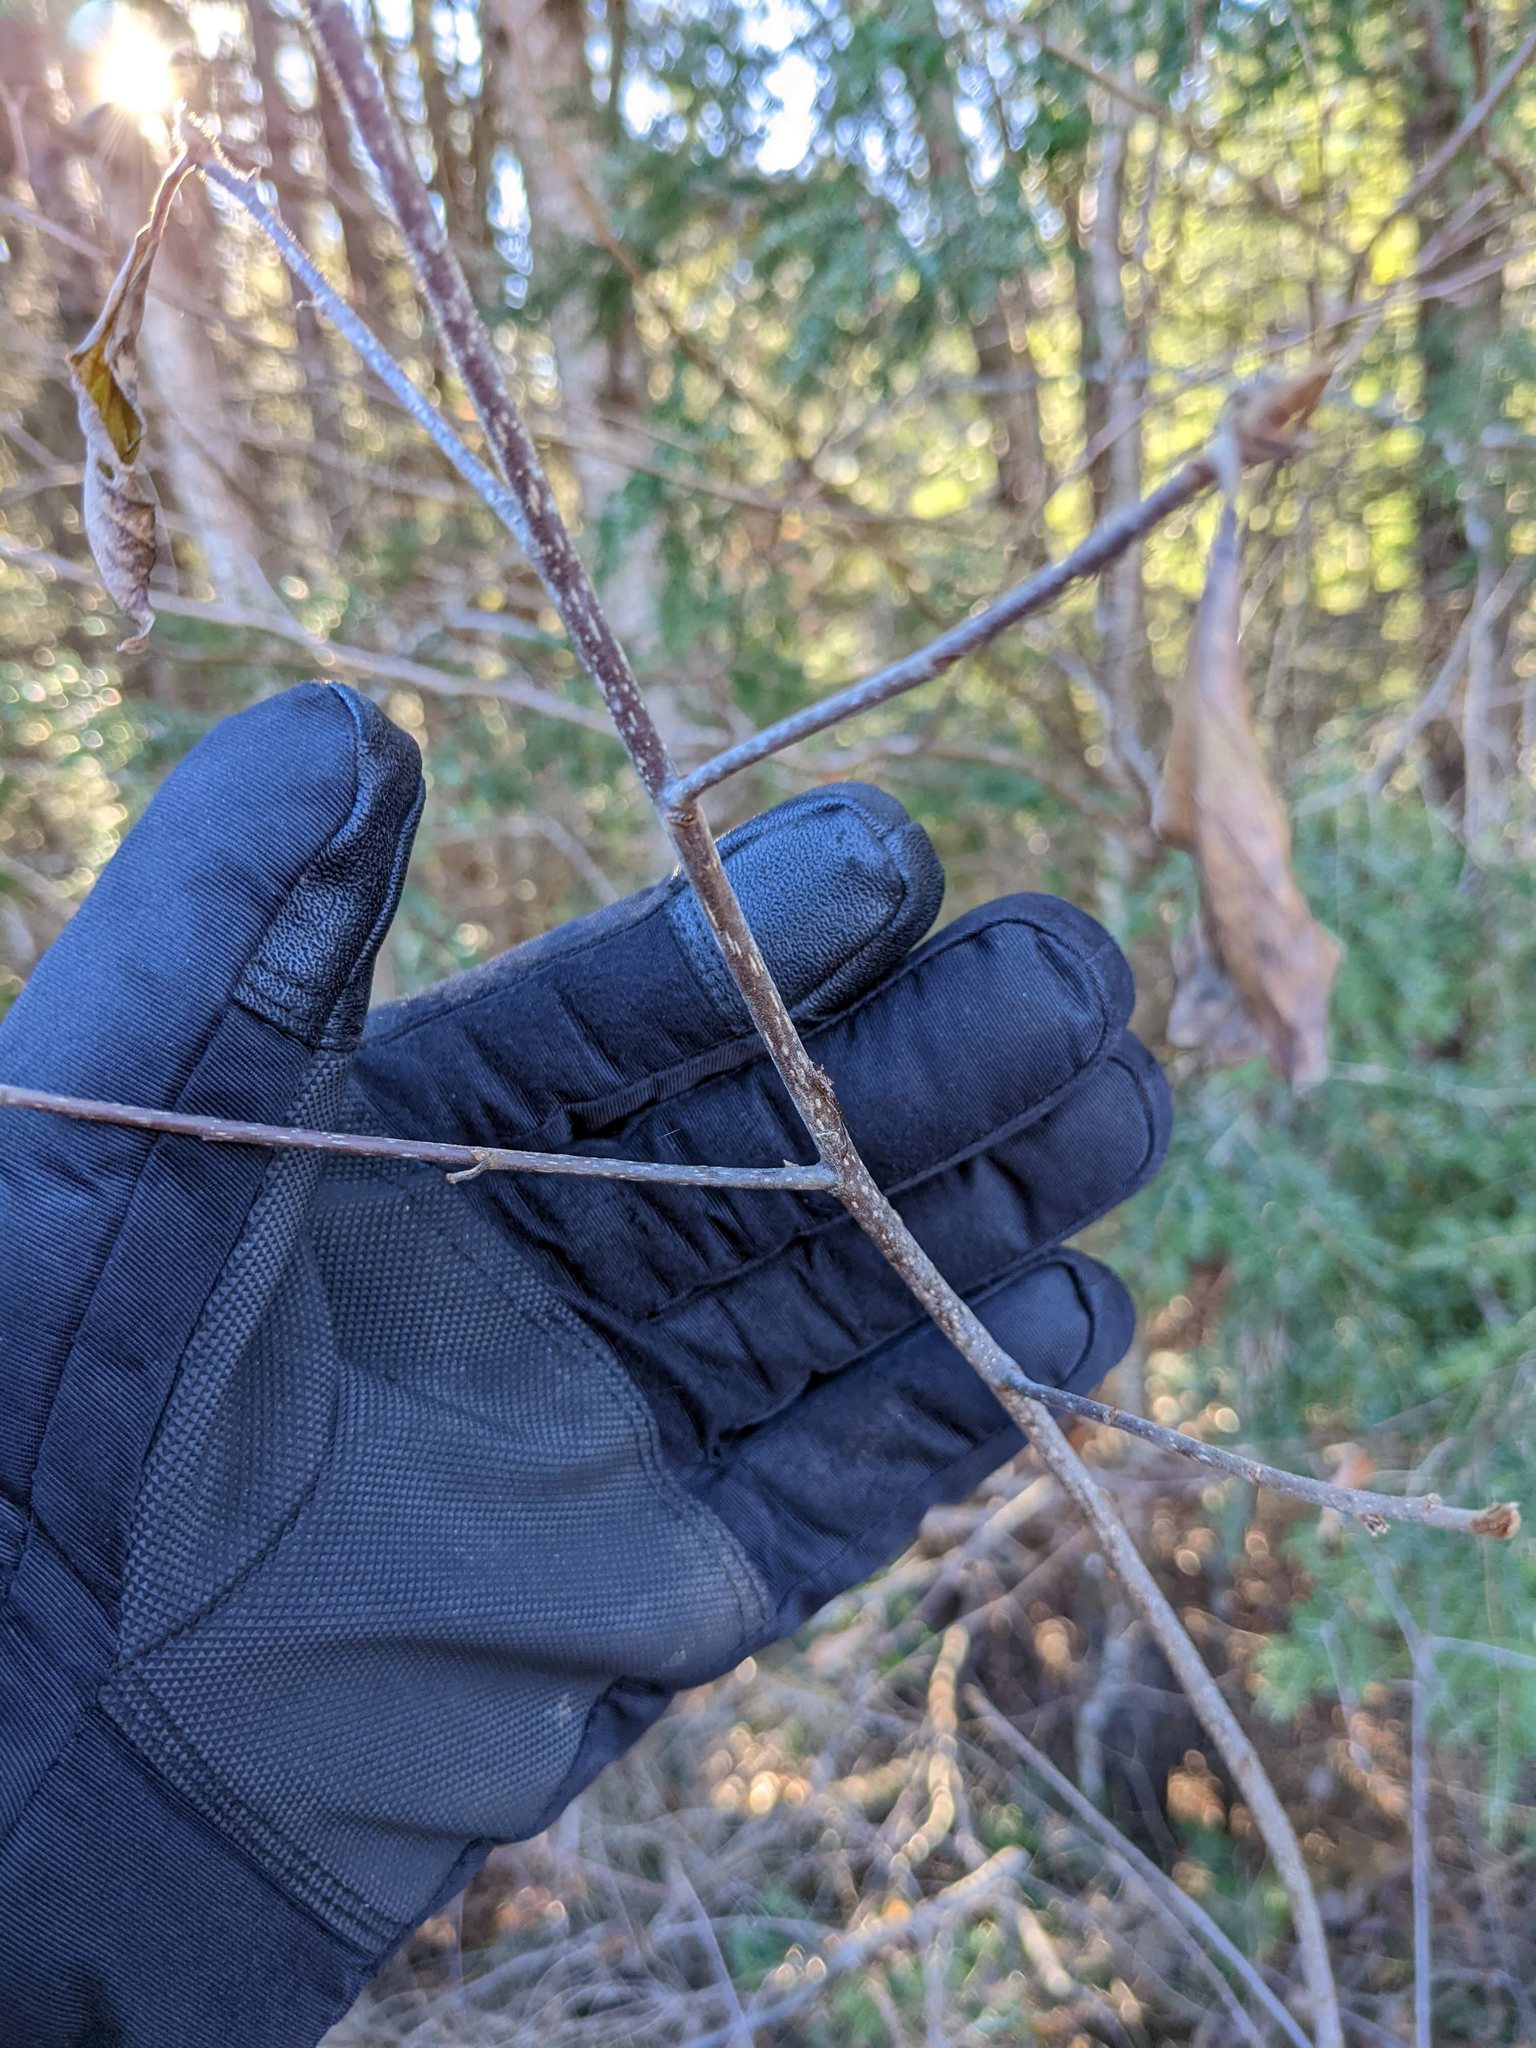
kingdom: Plantae
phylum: Tracheophyta
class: Magnoliopsida
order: Rosales
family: Elaeagnaceae
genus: Elaeagnus
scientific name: Elaeagnus umbellata
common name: Autumn olive
